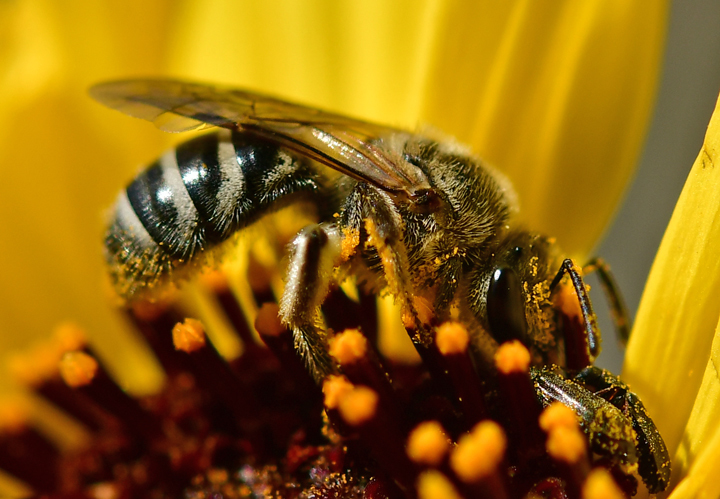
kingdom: Animalia
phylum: Arthropoda
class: Insecta
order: Hymenoptera
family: Halictidae
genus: Lasioglossum
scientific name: Lasioglossum sisymbrii
